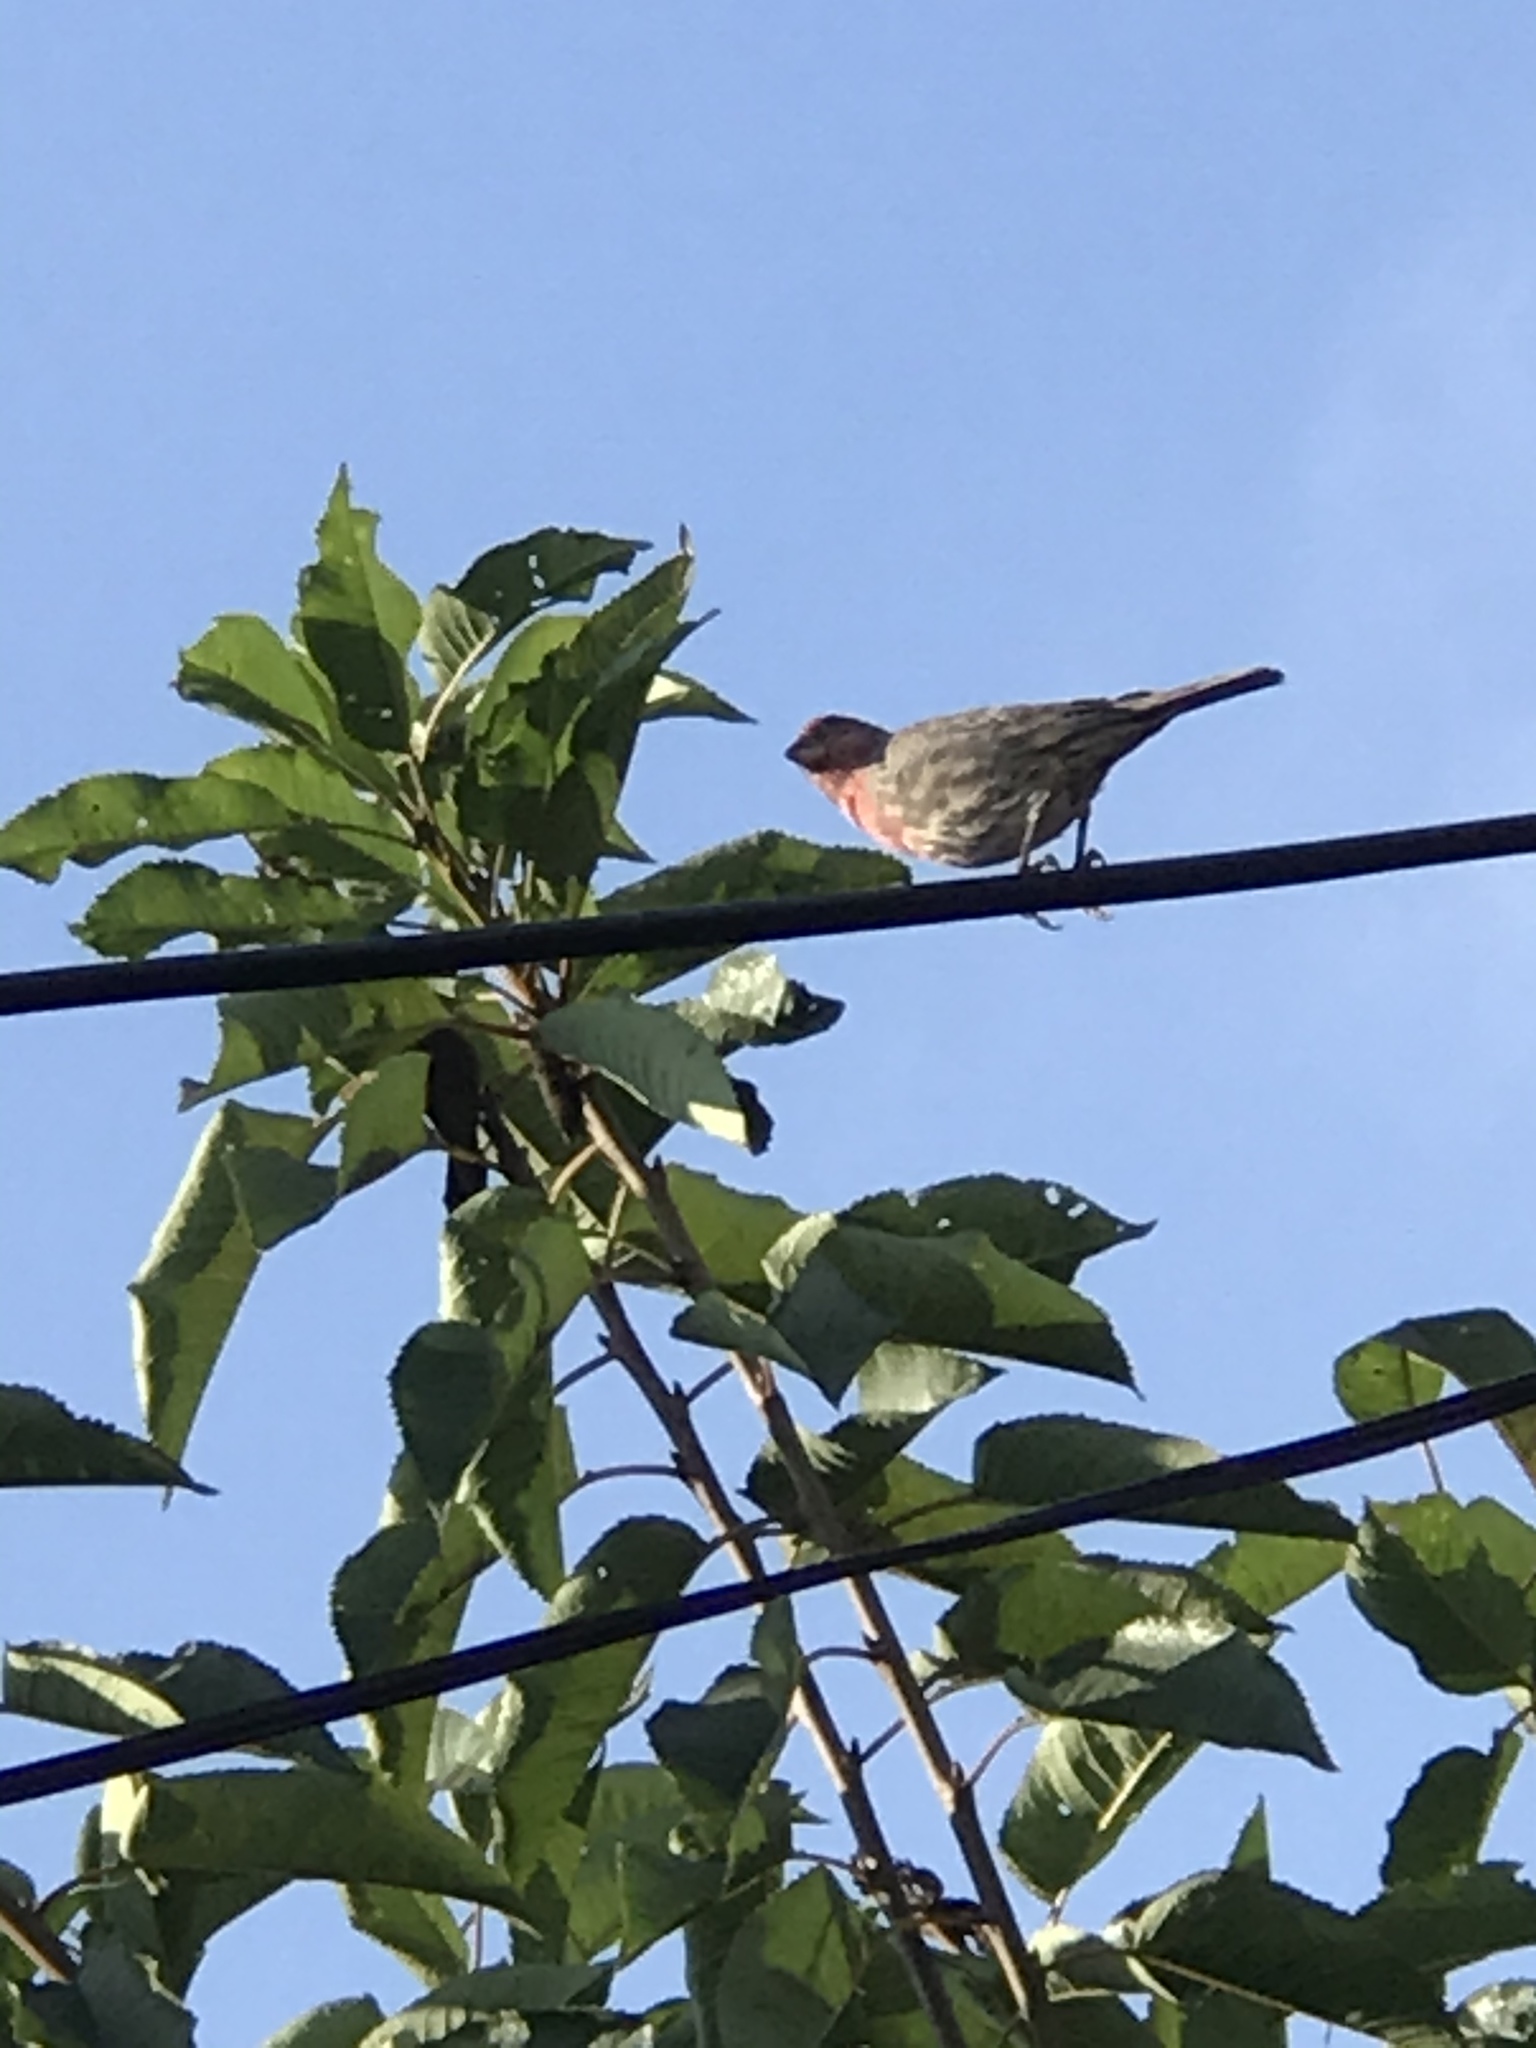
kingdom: Animalia
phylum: Chordata
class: Aves
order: Passeriformes
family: Fringillidae
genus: Haemorhous
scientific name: Haemorhous mexicanus
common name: House finch
